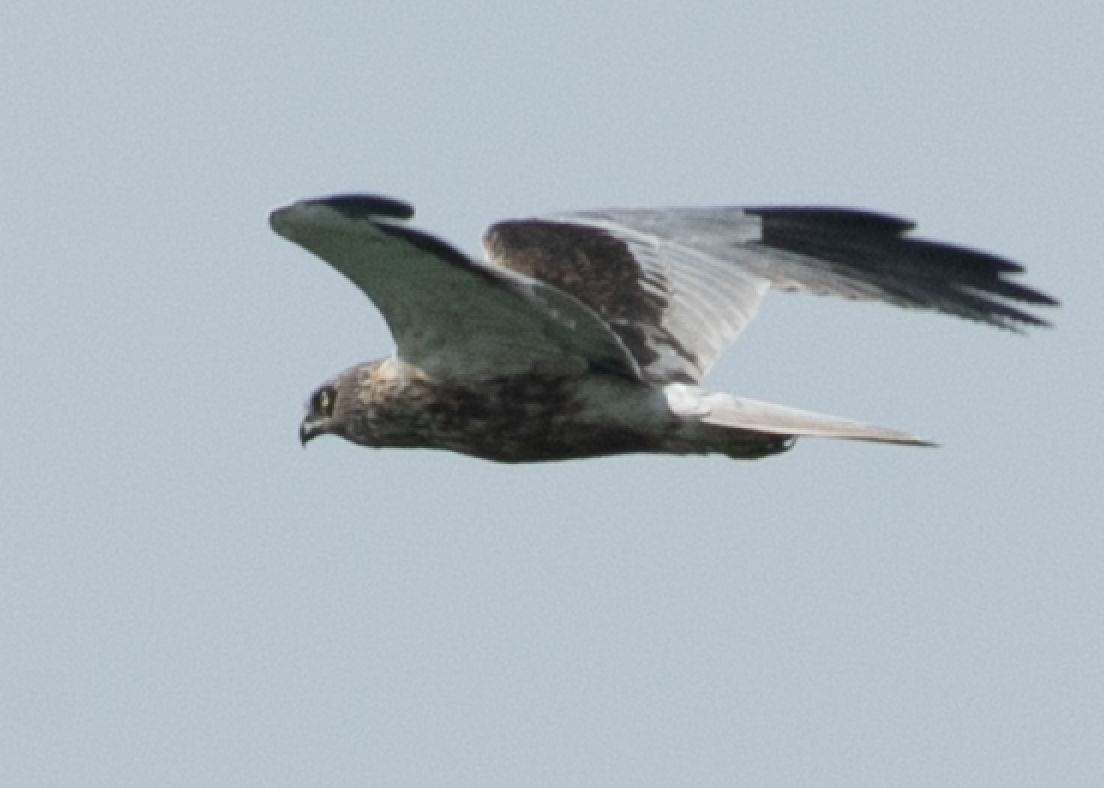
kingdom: Animalia
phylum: Chordata
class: Aves
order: Accipitriformes
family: Accipitridae
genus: Circus
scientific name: Circus aeruginosus
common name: Western marsh harrier
